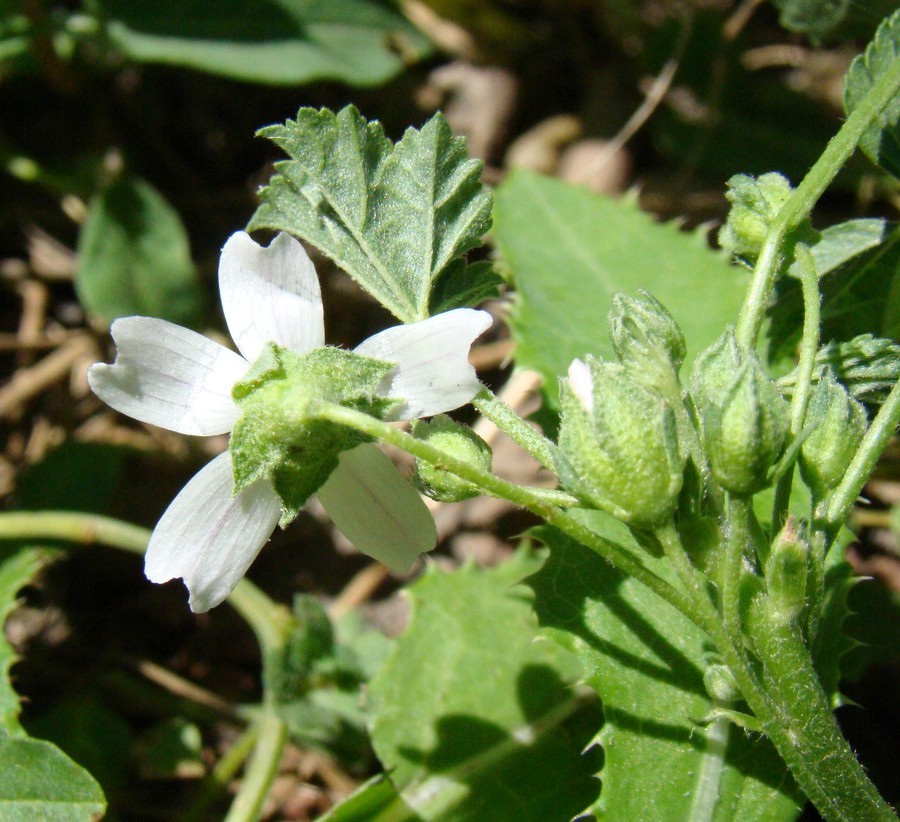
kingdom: Plantae
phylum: Tracheophyta
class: Magnoliopsida
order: Malvales
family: Malvaceae
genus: Malva
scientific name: Malva neglecta
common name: Common mallow
